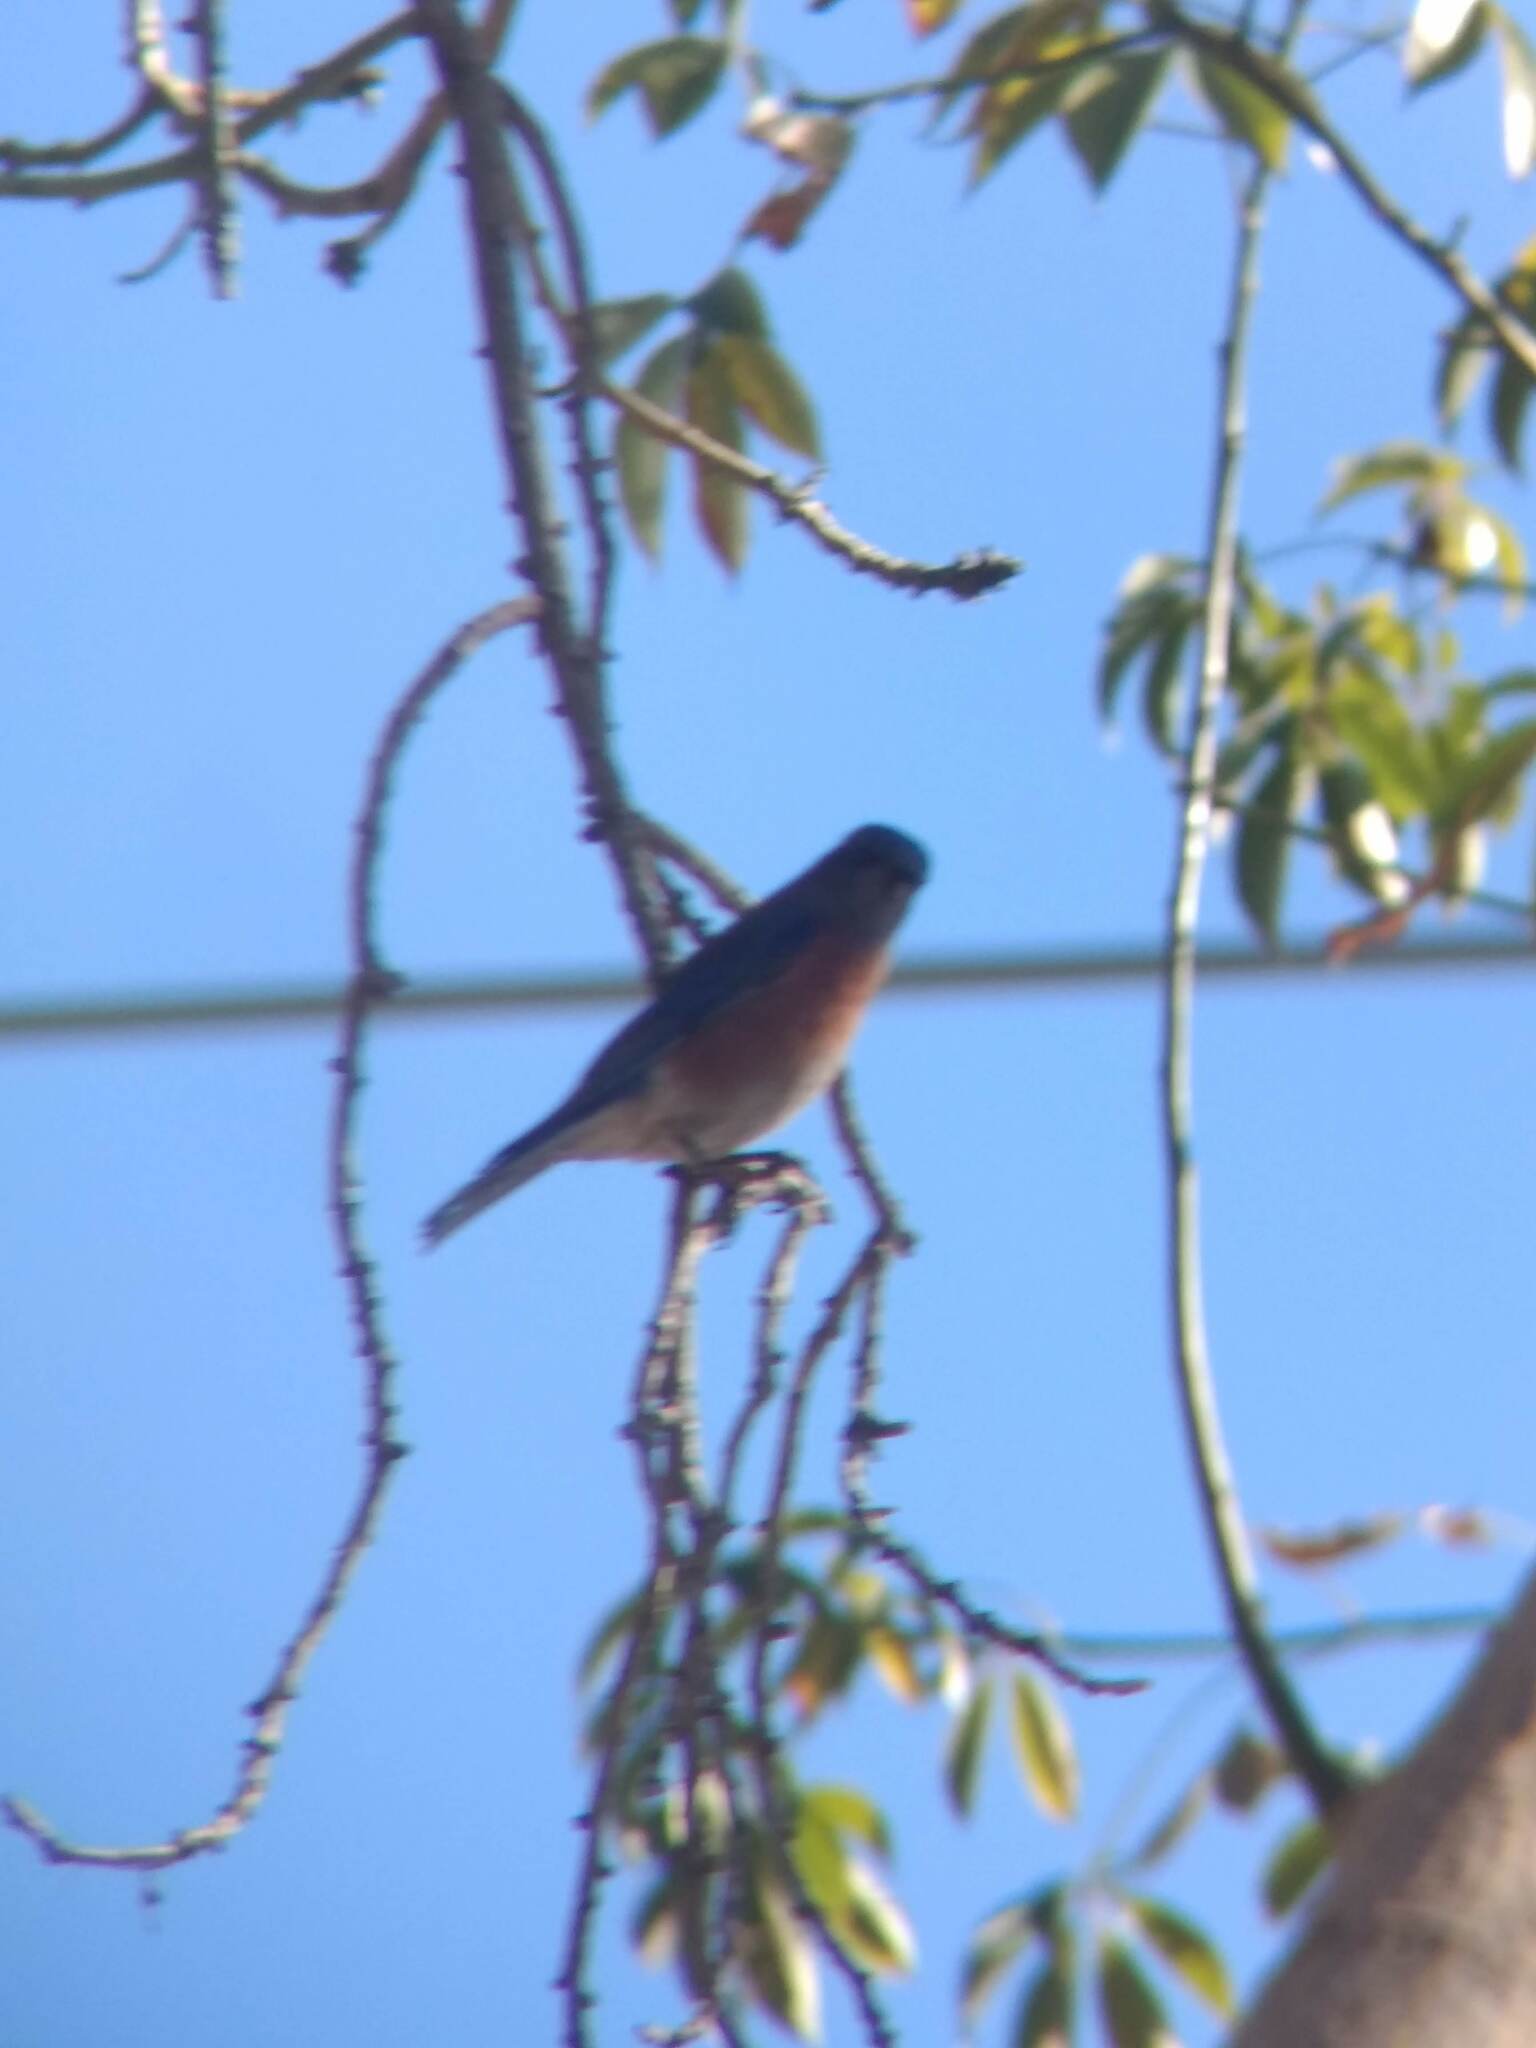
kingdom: Animalia
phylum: Chordata
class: Aves
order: Passeriformes
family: Turdidae
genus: Sialia
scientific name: Sialia mexicana
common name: Western bluebird
